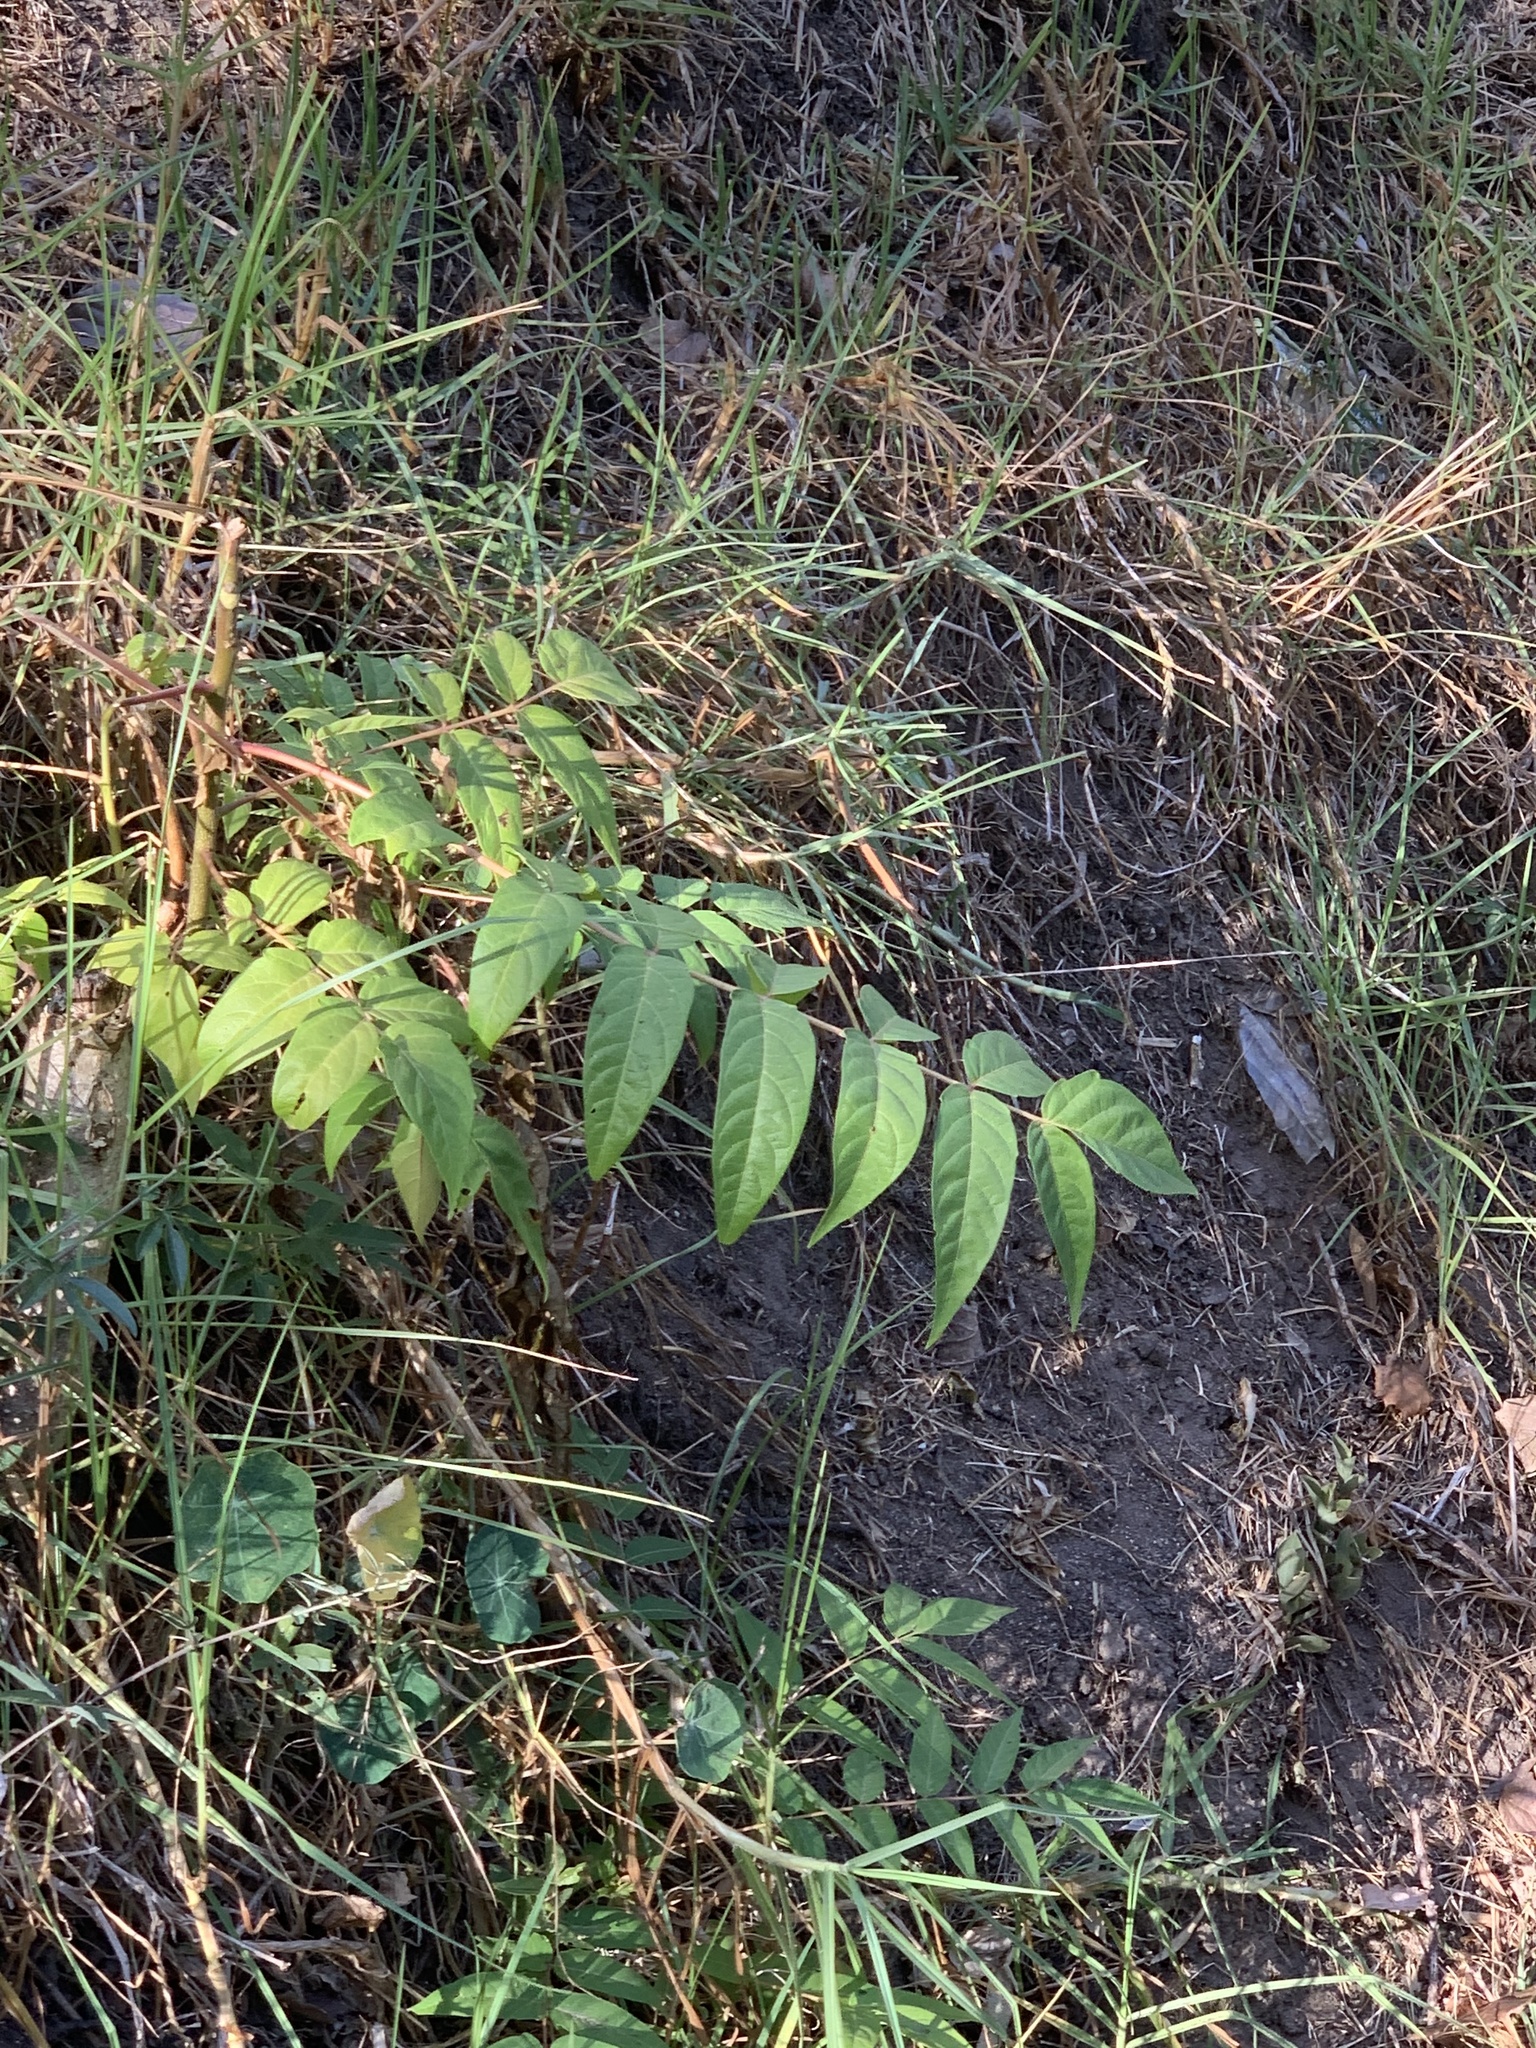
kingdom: Plantae
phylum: Tracheophyta
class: Magnoliopsida
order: Sapindales
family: Simaroubaceae
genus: Ailanthus
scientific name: Ailanthus altissima
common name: Tree-of-heaven
